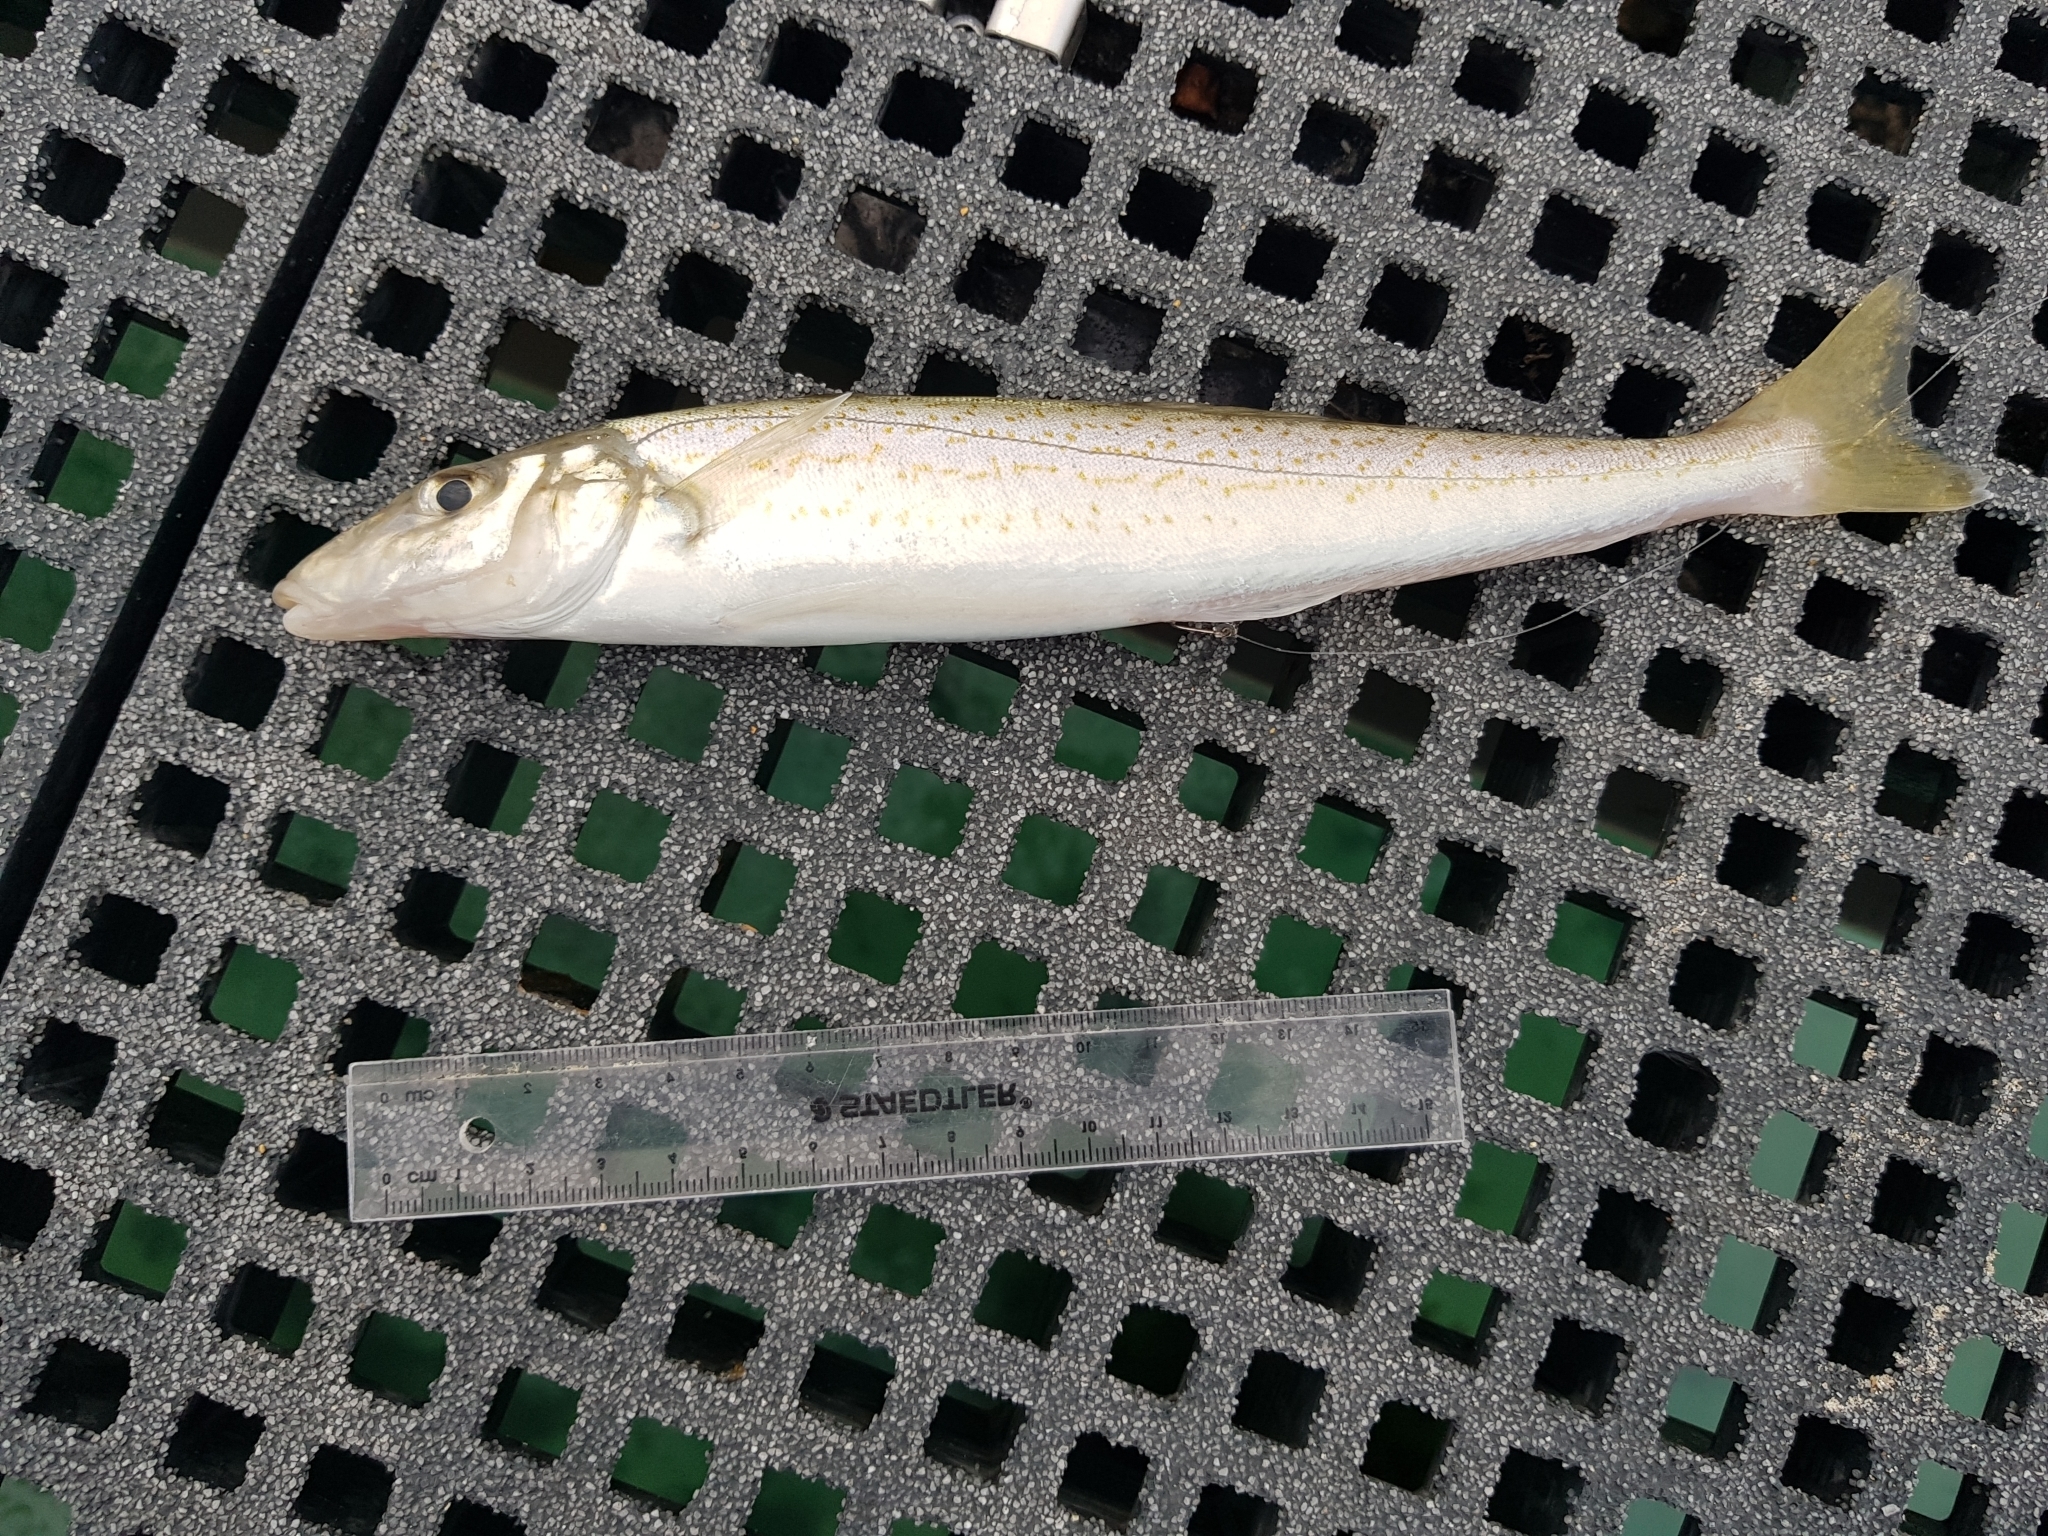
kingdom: Animalia
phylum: Chordata
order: Perciformes
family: Sillaginidae
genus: Sillaginodes
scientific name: Sillaginodes punctatus
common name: King george whiting
